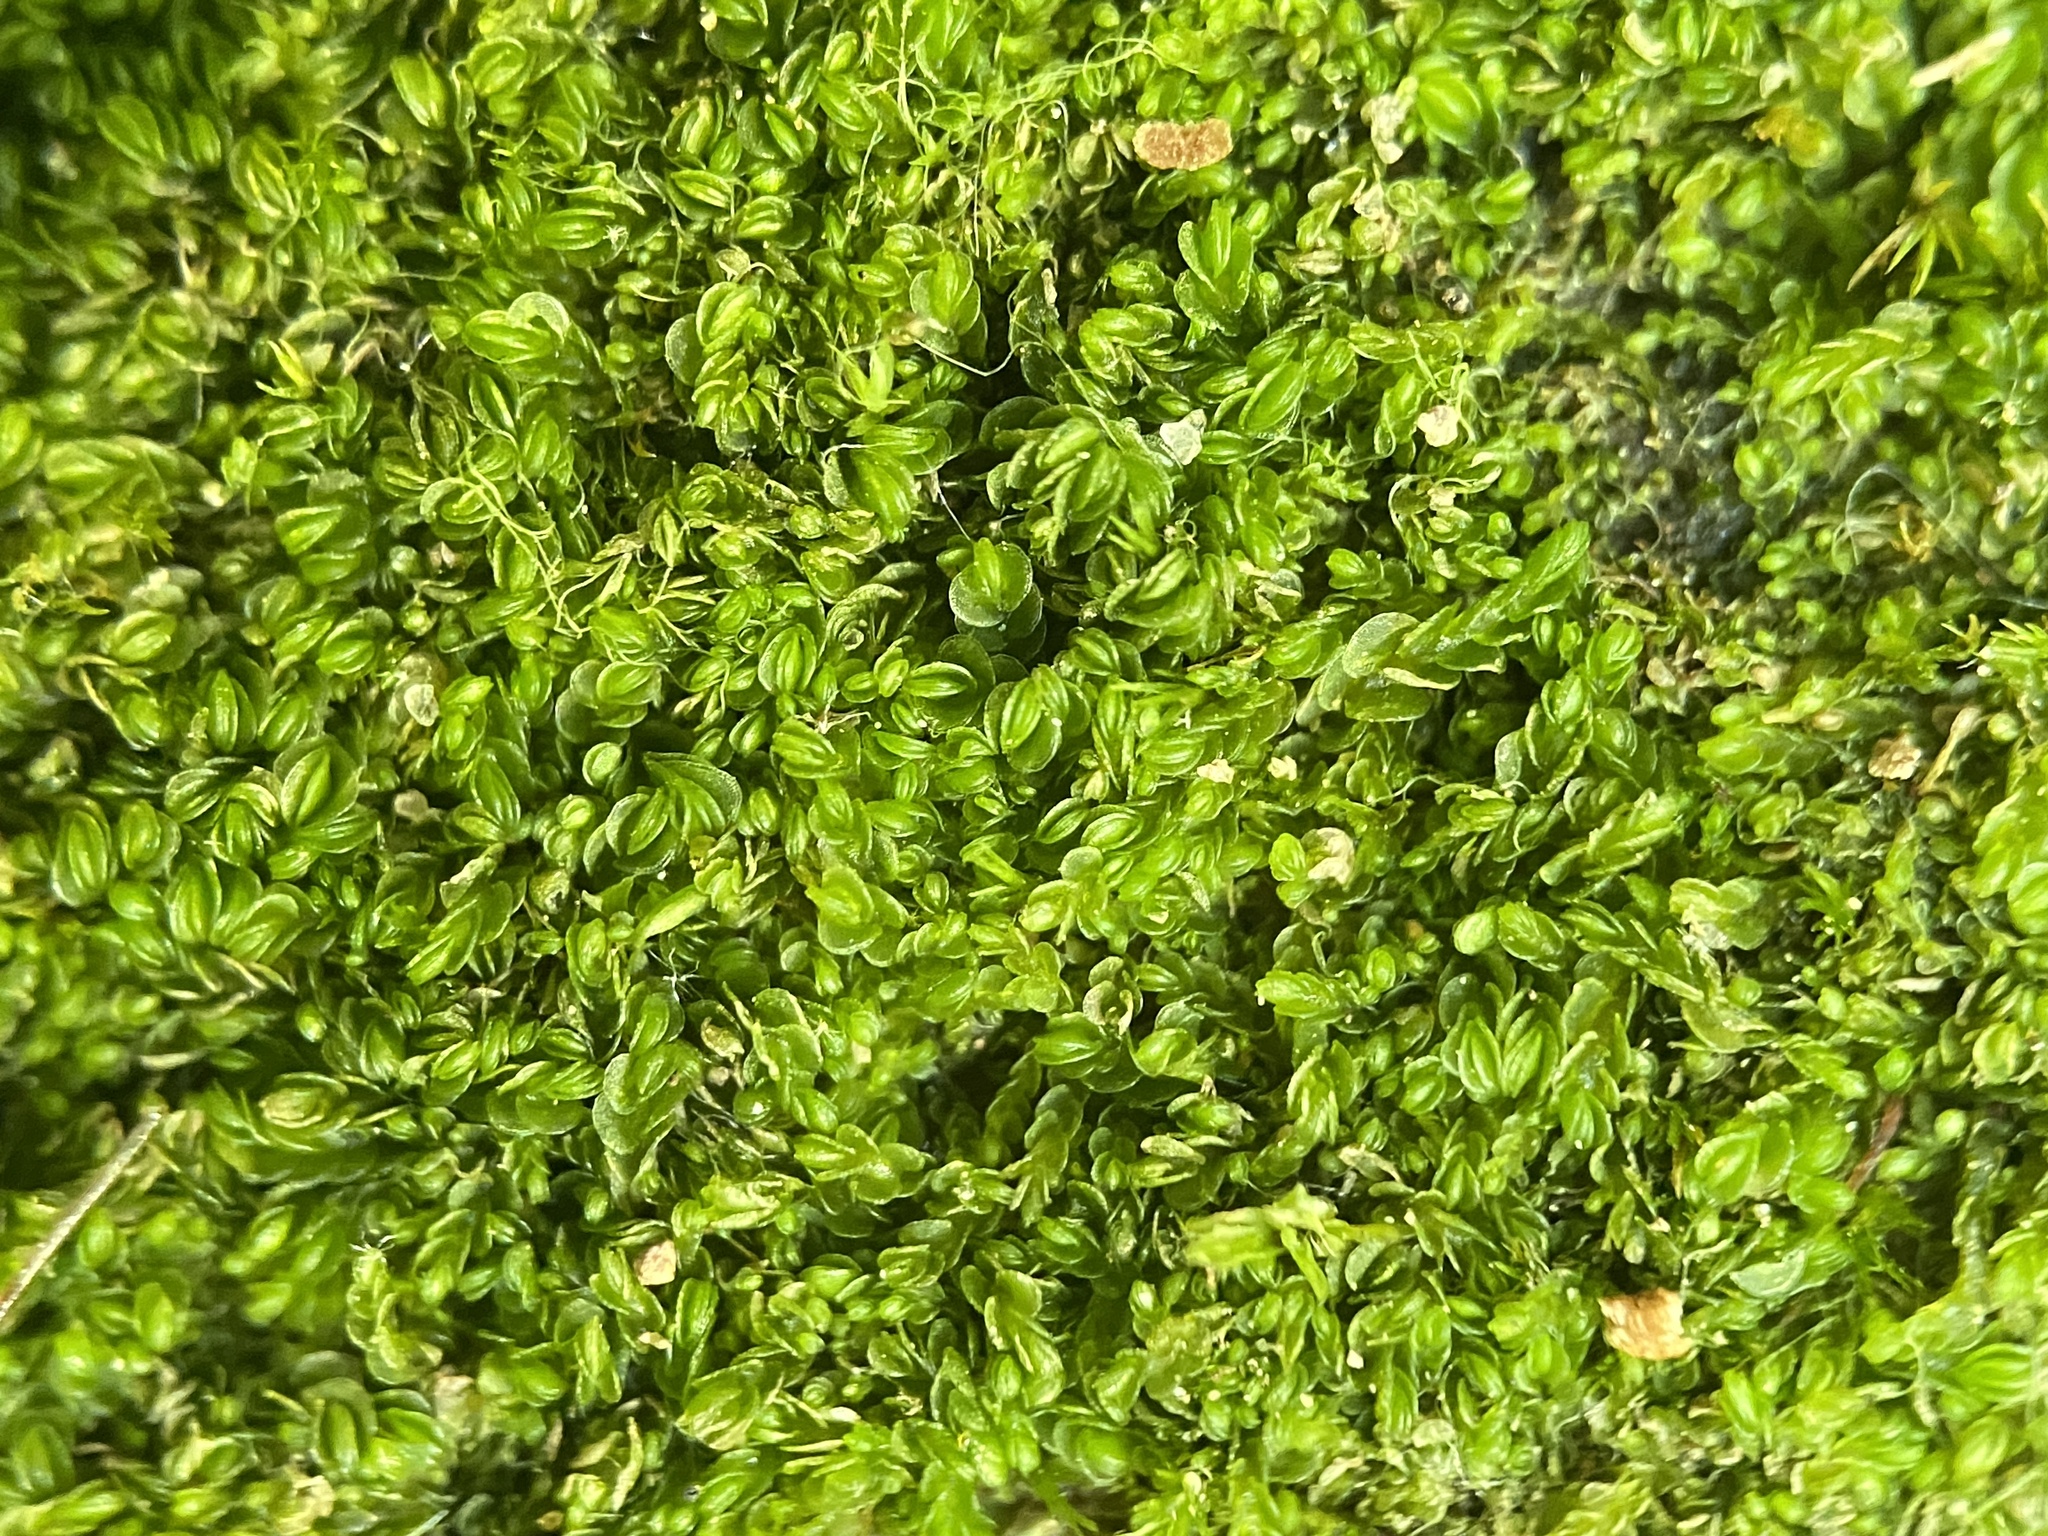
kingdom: Plantae
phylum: Marchantiophyta
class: Jungermanniopsida
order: Jungermanniales
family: Solenostomataceae
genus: Solenostoma
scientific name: Solenostoma gracillimum
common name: Crenulated flapwort
